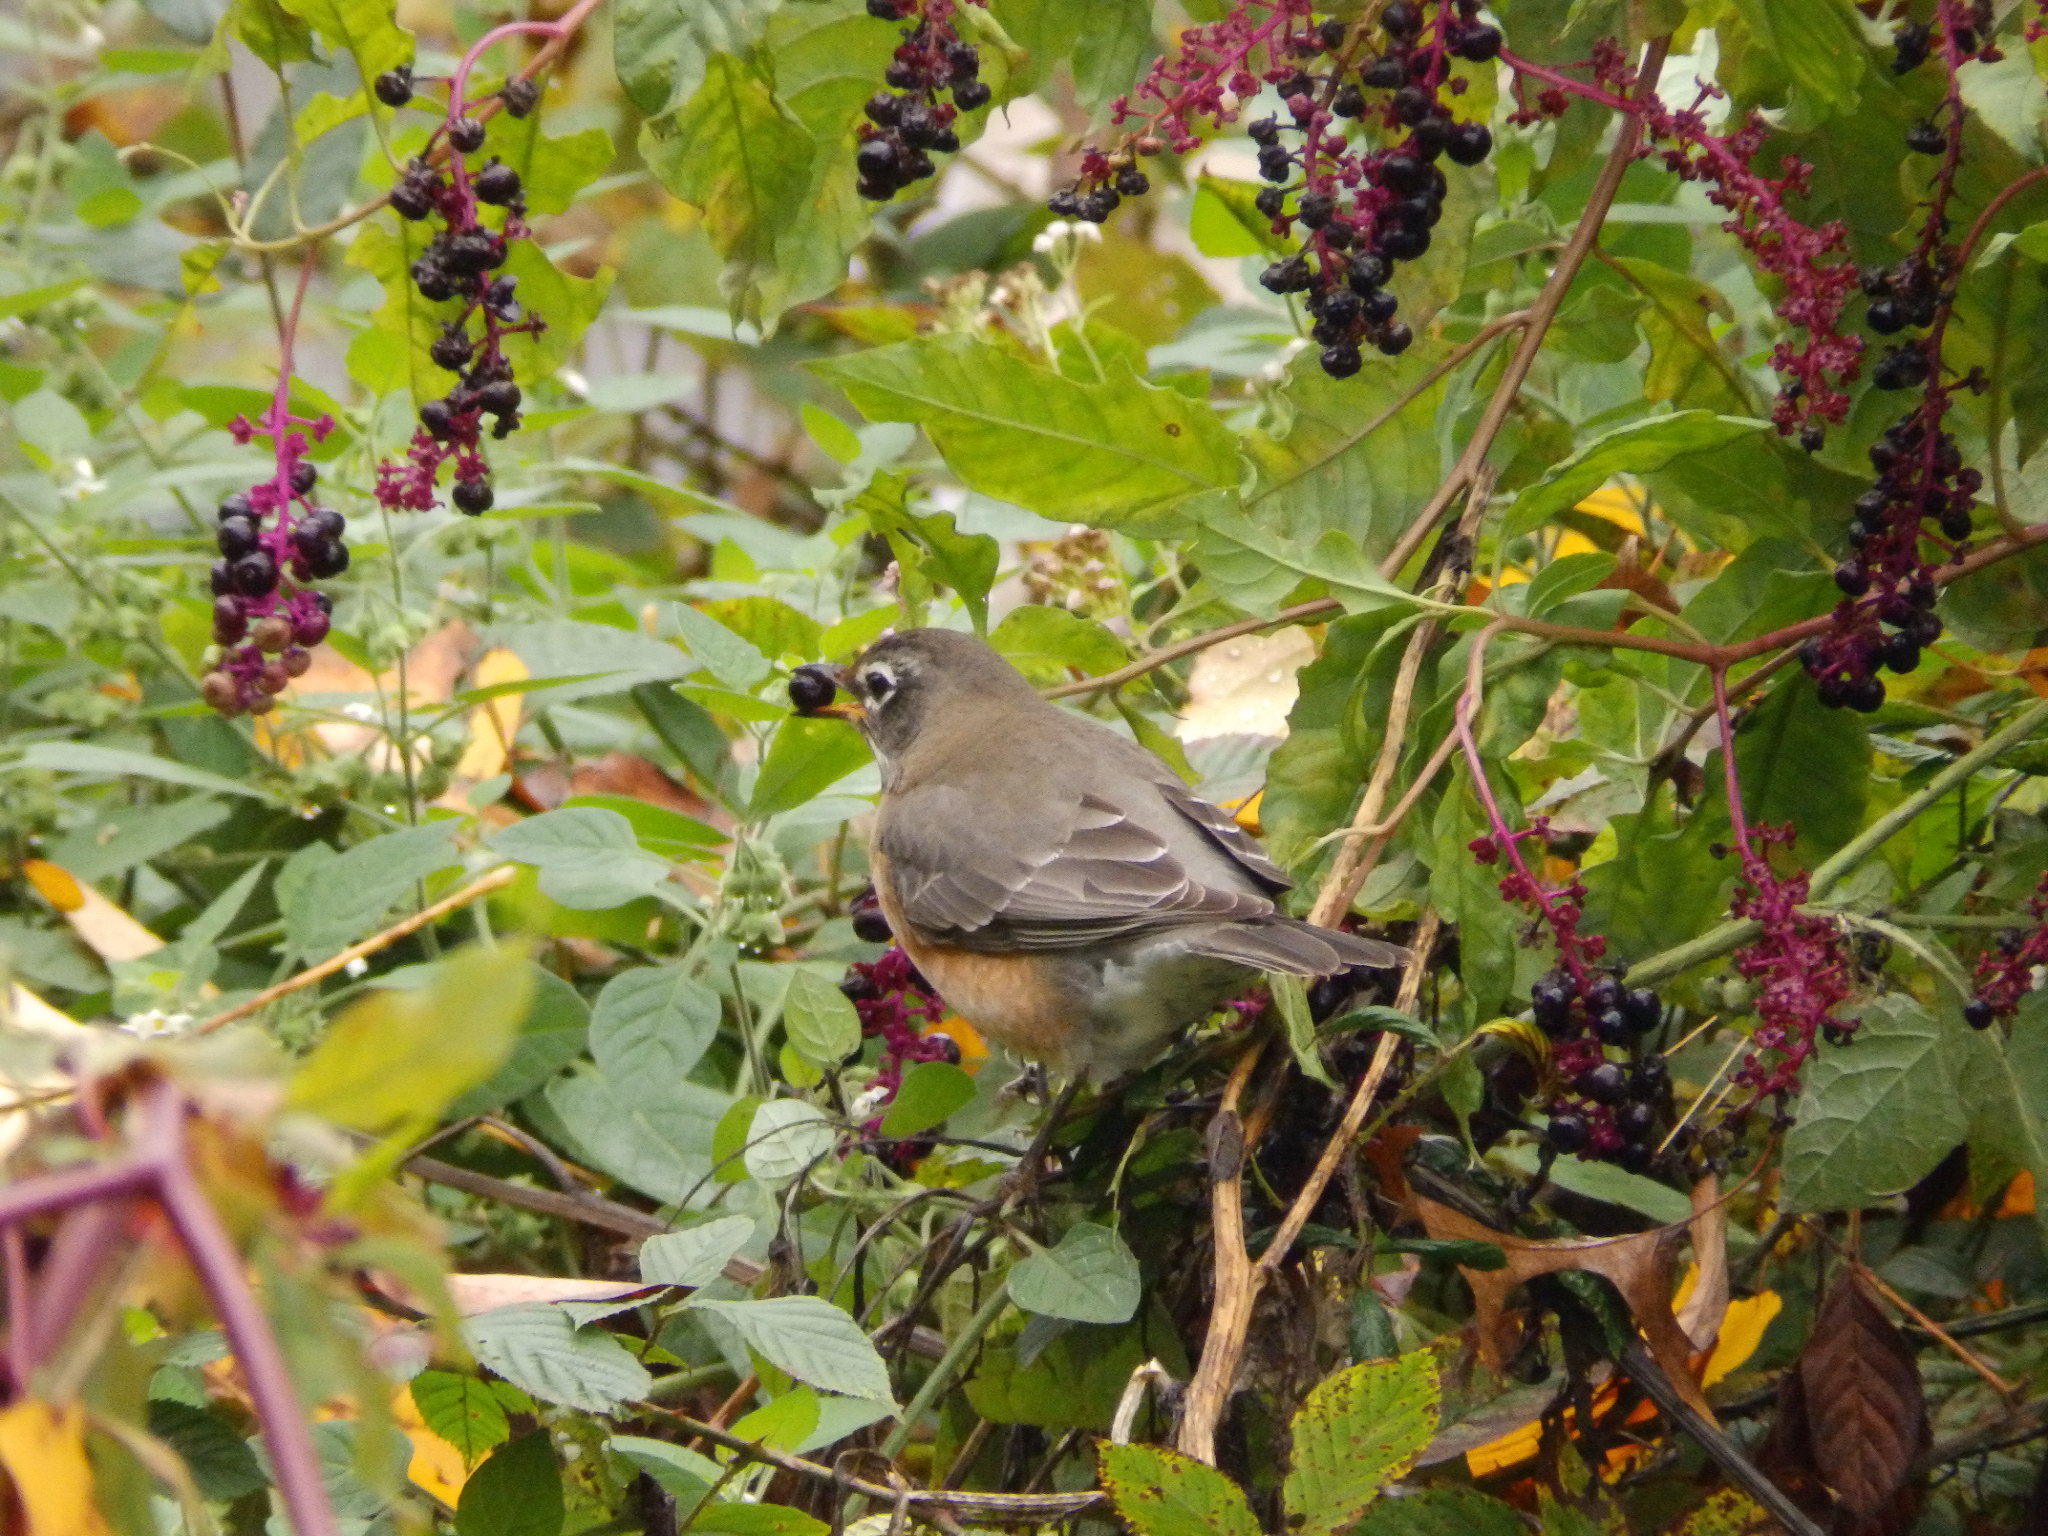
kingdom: Animalia
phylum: Chordata
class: Aves
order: Passeriformes
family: Turdidae
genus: Turdus
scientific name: Turdus migratorius
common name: American robin
